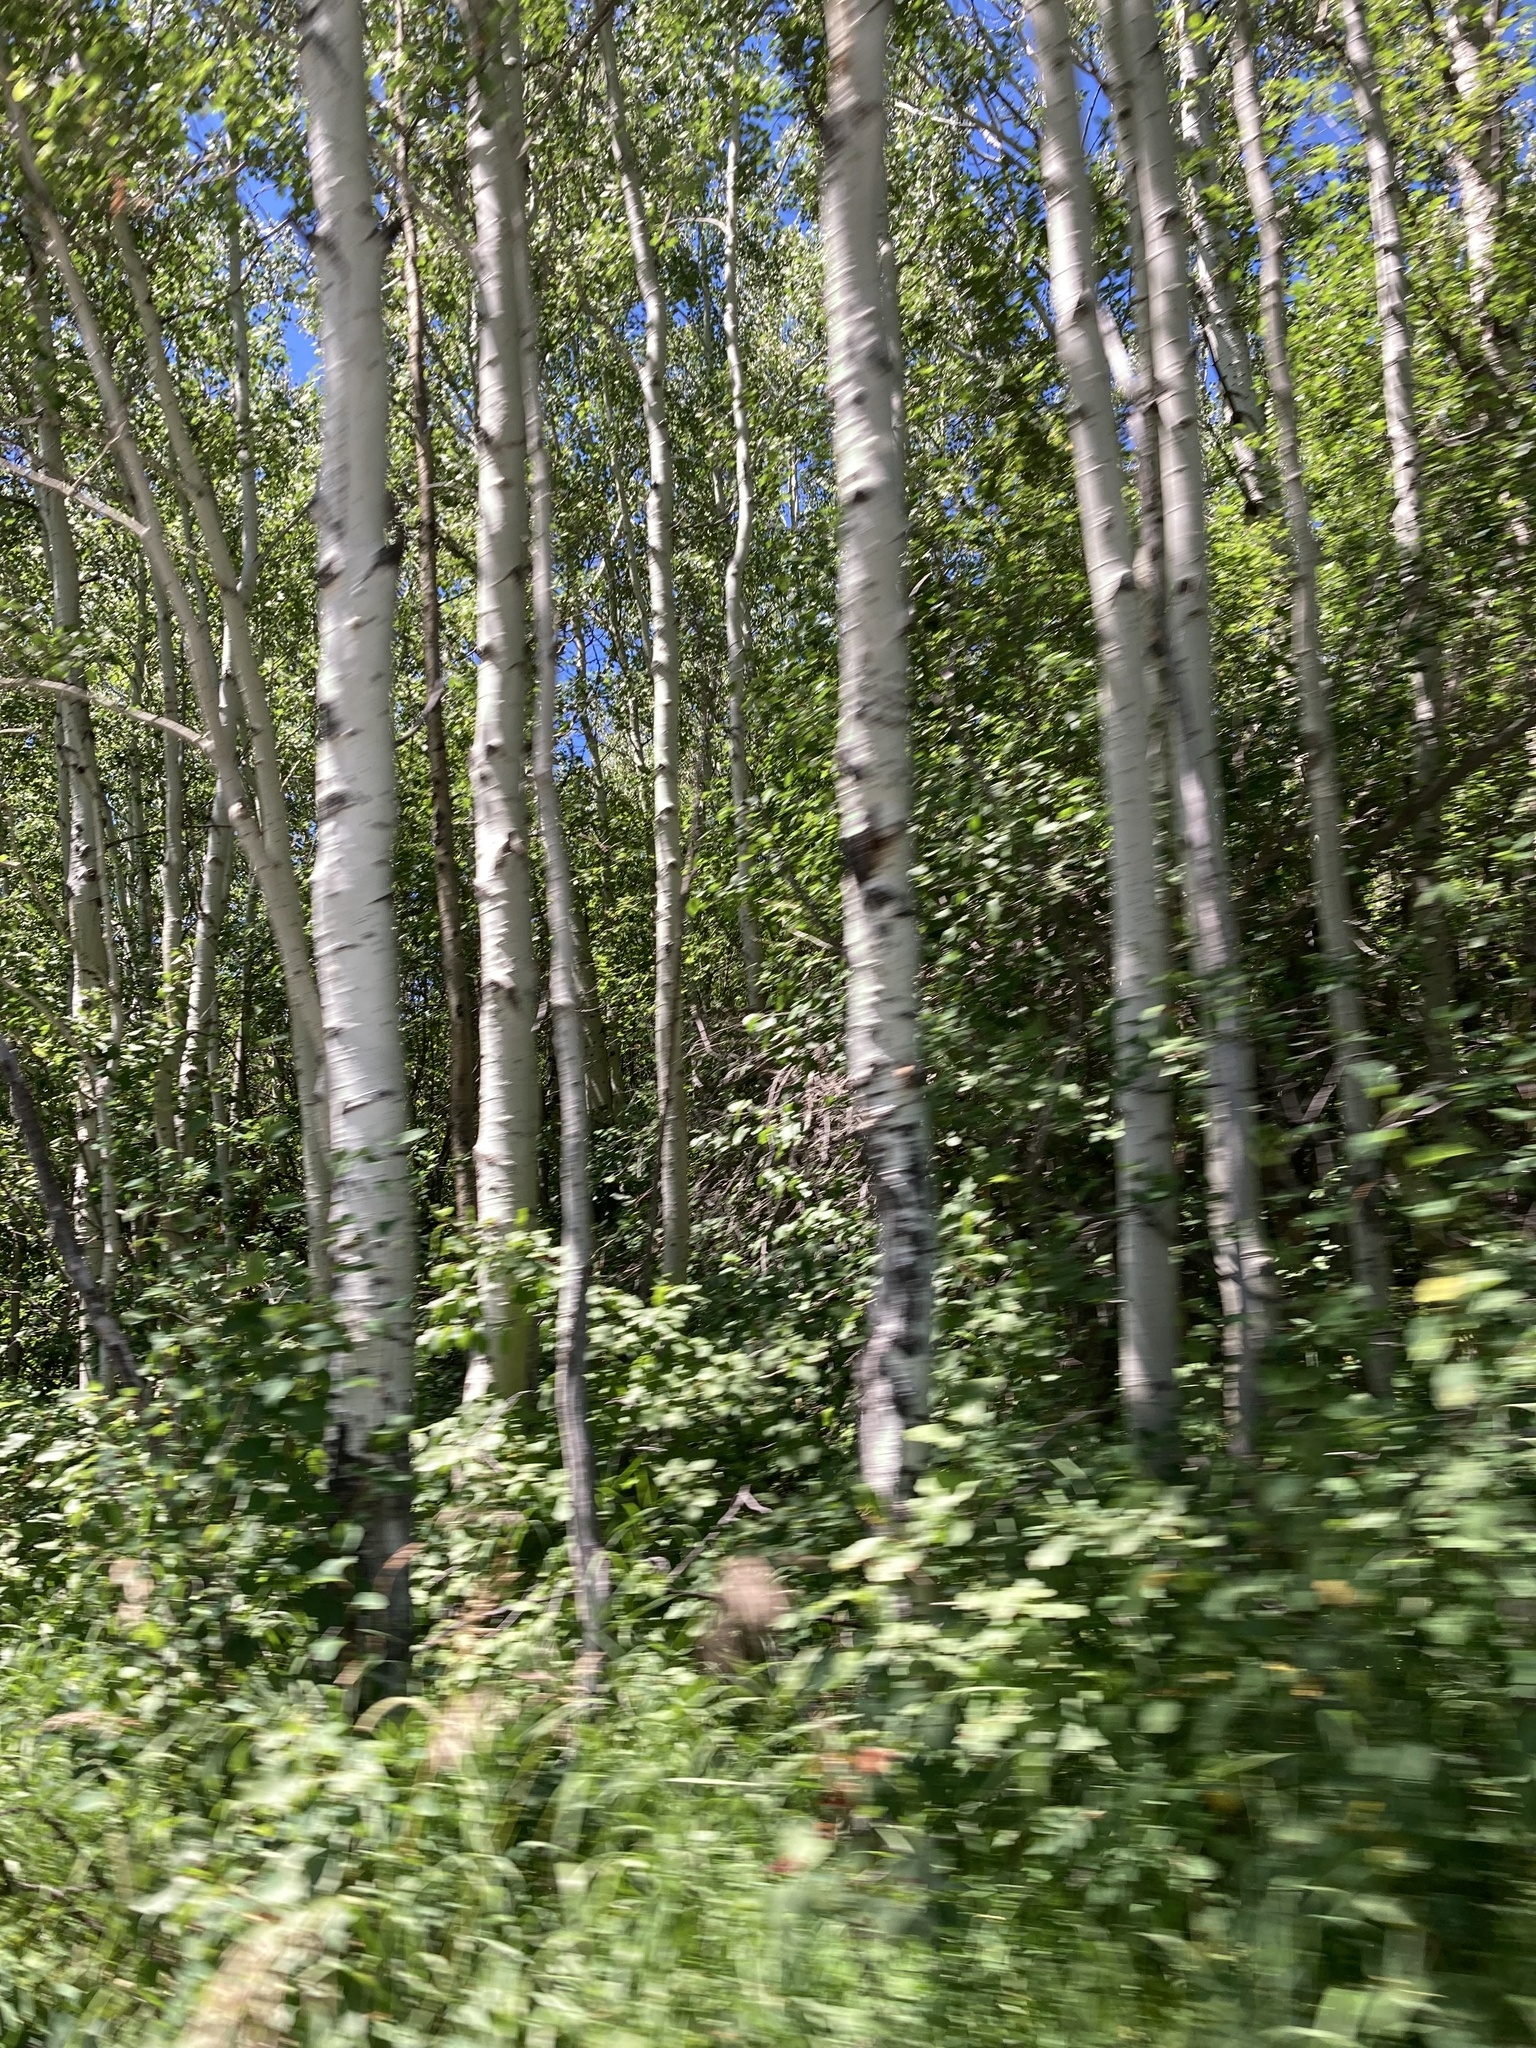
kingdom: Plantae
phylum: Tracheophyta
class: Magnoliopsida
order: Malpighiales
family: Salicaceae
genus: Populus
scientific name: Populus tremuloides
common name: Quaking aspen
